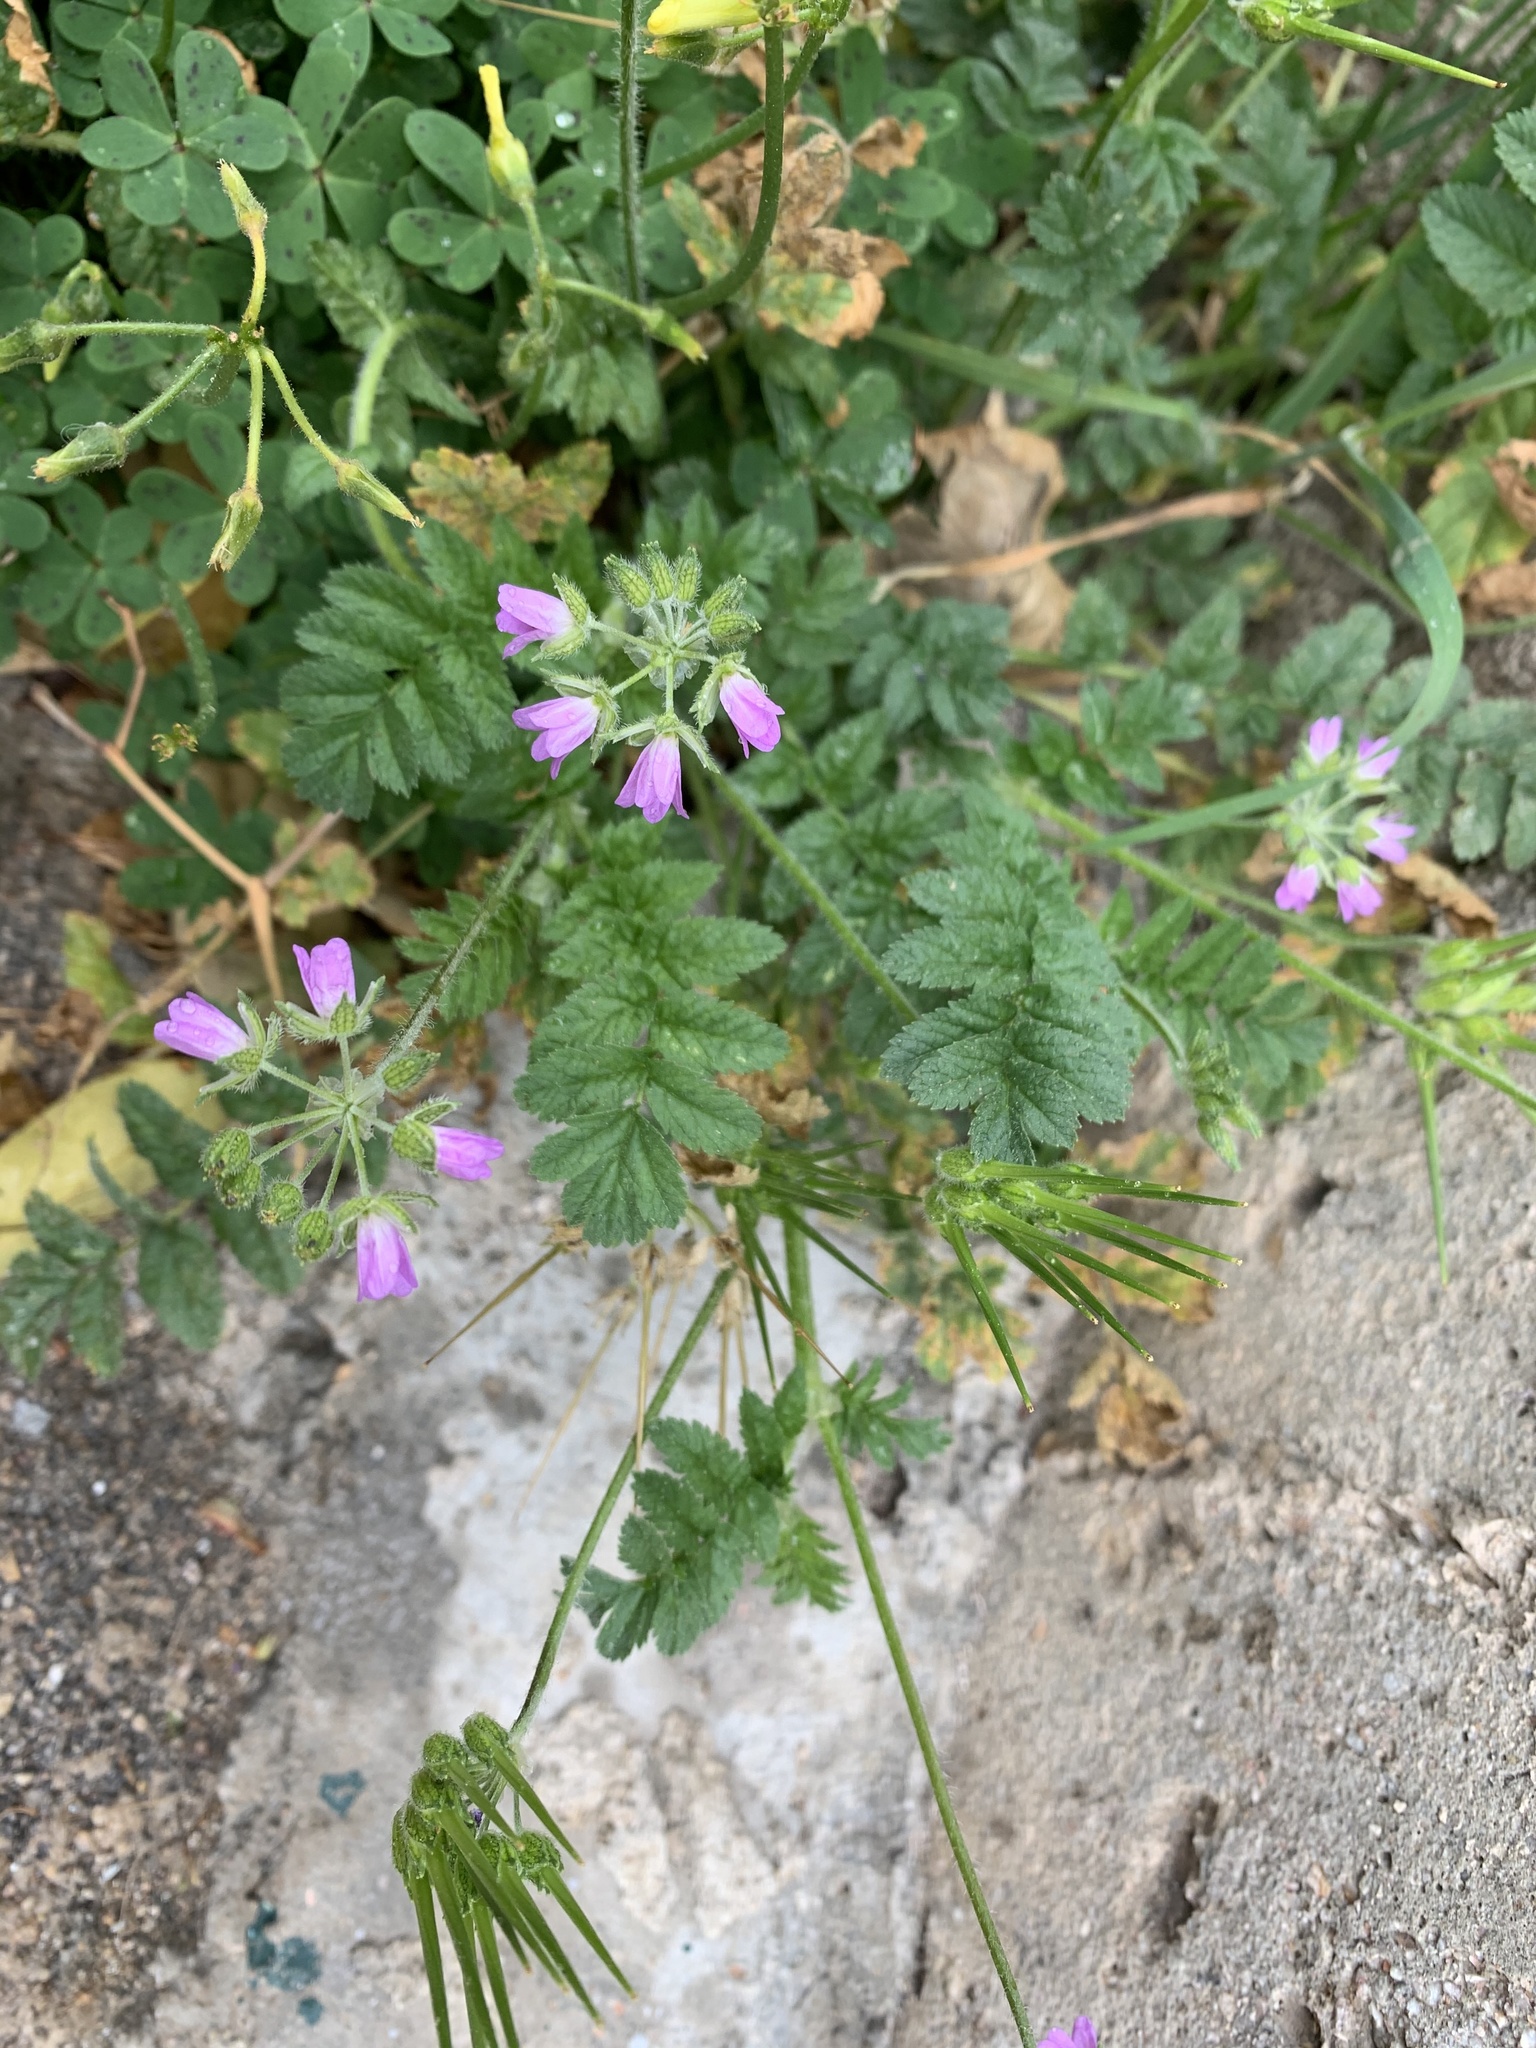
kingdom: Plantae
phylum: Tracheophyta
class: Magnoliopsida
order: Geraniales
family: Geraniaceae
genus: Erodium
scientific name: Erodium moschatum
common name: Musk stork's-bill
